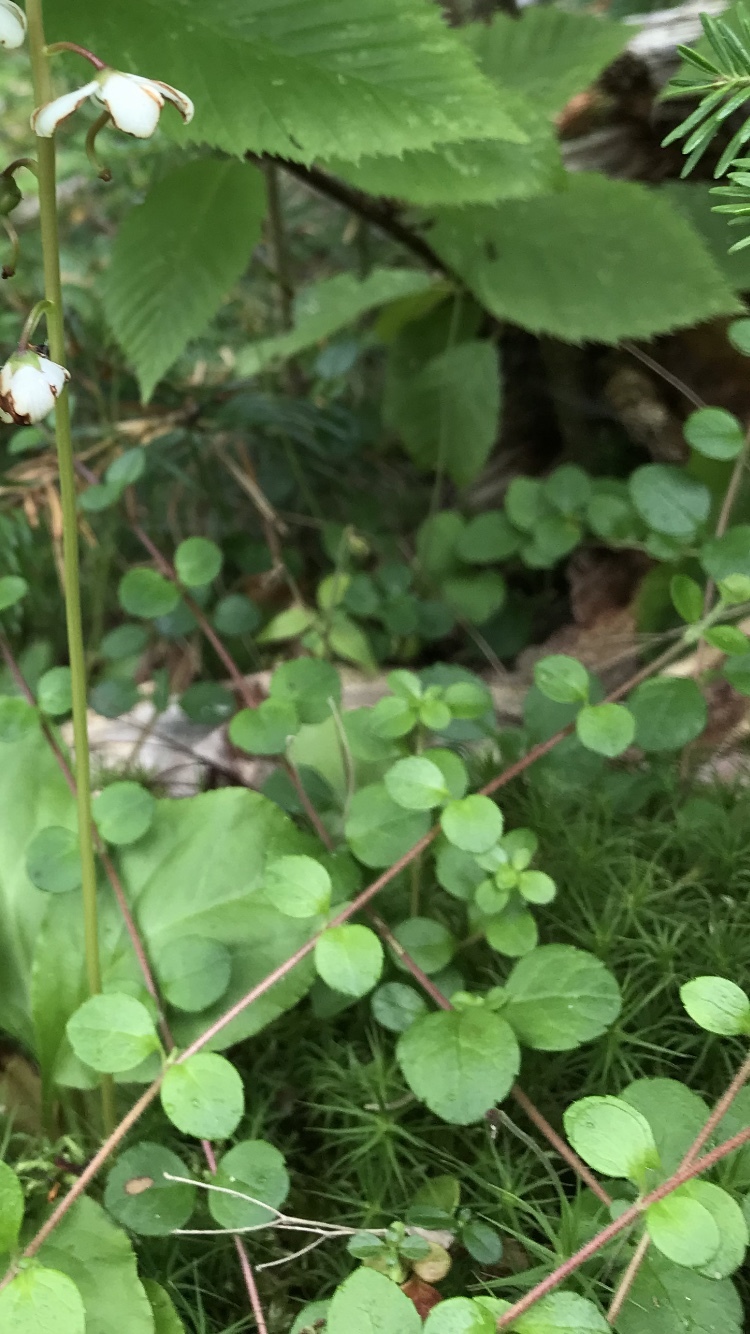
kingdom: Plantae
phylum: Tracheophyta
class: Magnoliopsida
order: Dipsacales
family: Caprifoliaceae
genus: Linnaea
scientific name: Linnaea borealis
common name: Twinflower
